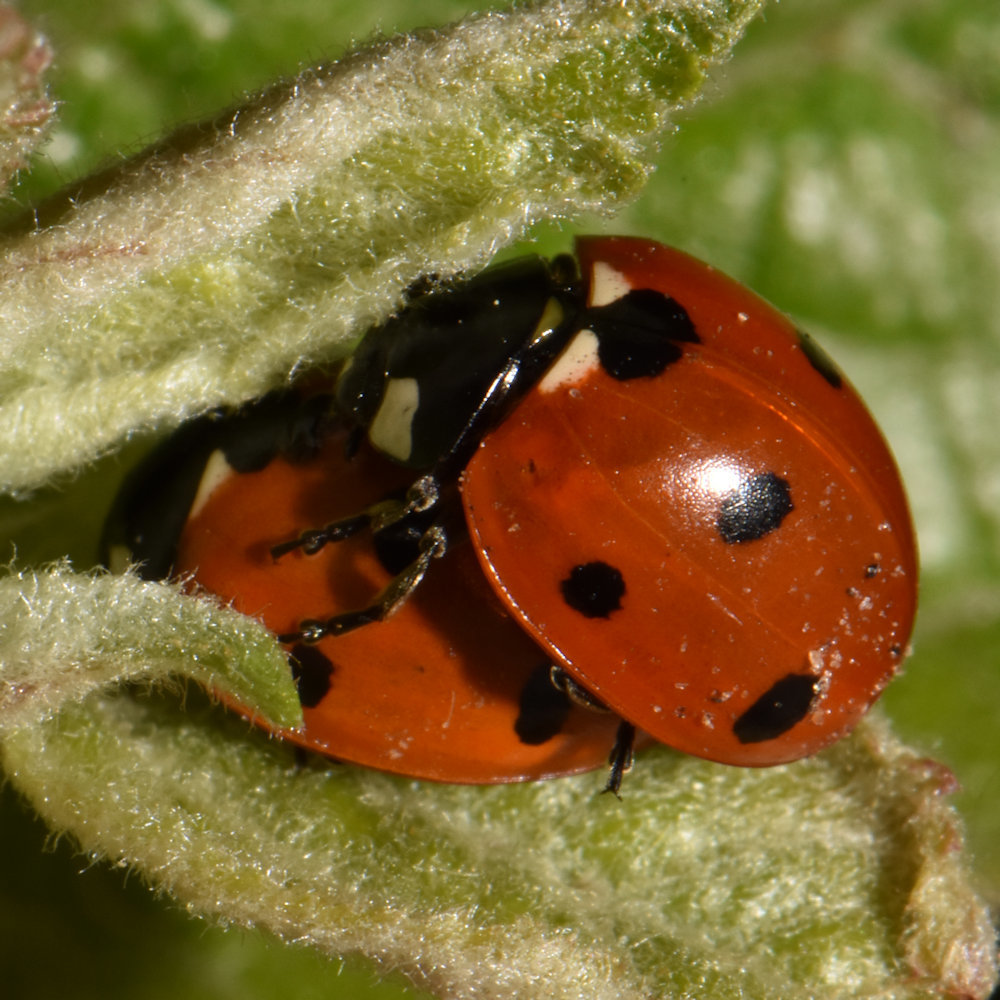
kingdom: Animalia
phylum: Arthropoda
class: Insecta
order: Coleoptera
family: Coccinellidae
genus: Coccinella
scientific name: Coccinella septempunctata
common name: Sevenspotted lady beetle
